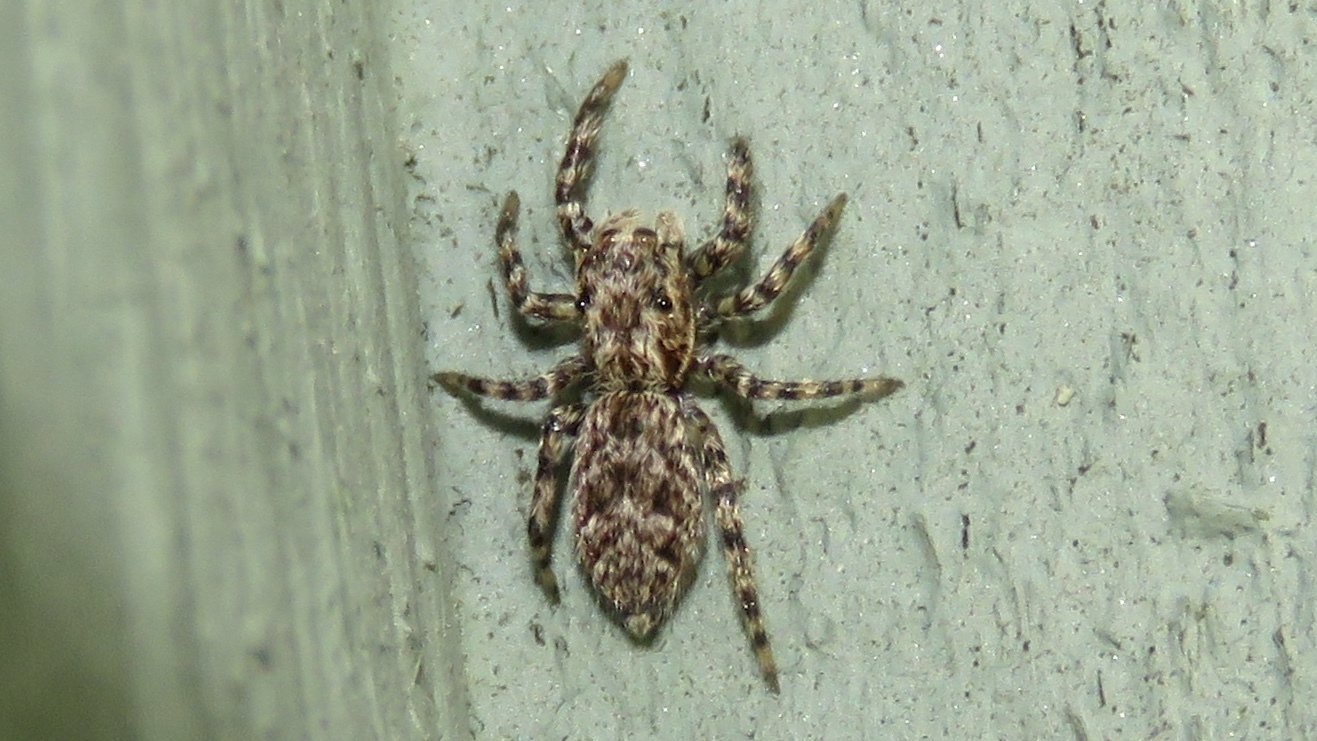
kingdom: Animalia
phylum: Arthropoda
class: Arachnida
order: Araneae
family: Salticidae
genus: Platycryptus
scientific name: Platycryptus undatus
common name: Tan jumping spider
